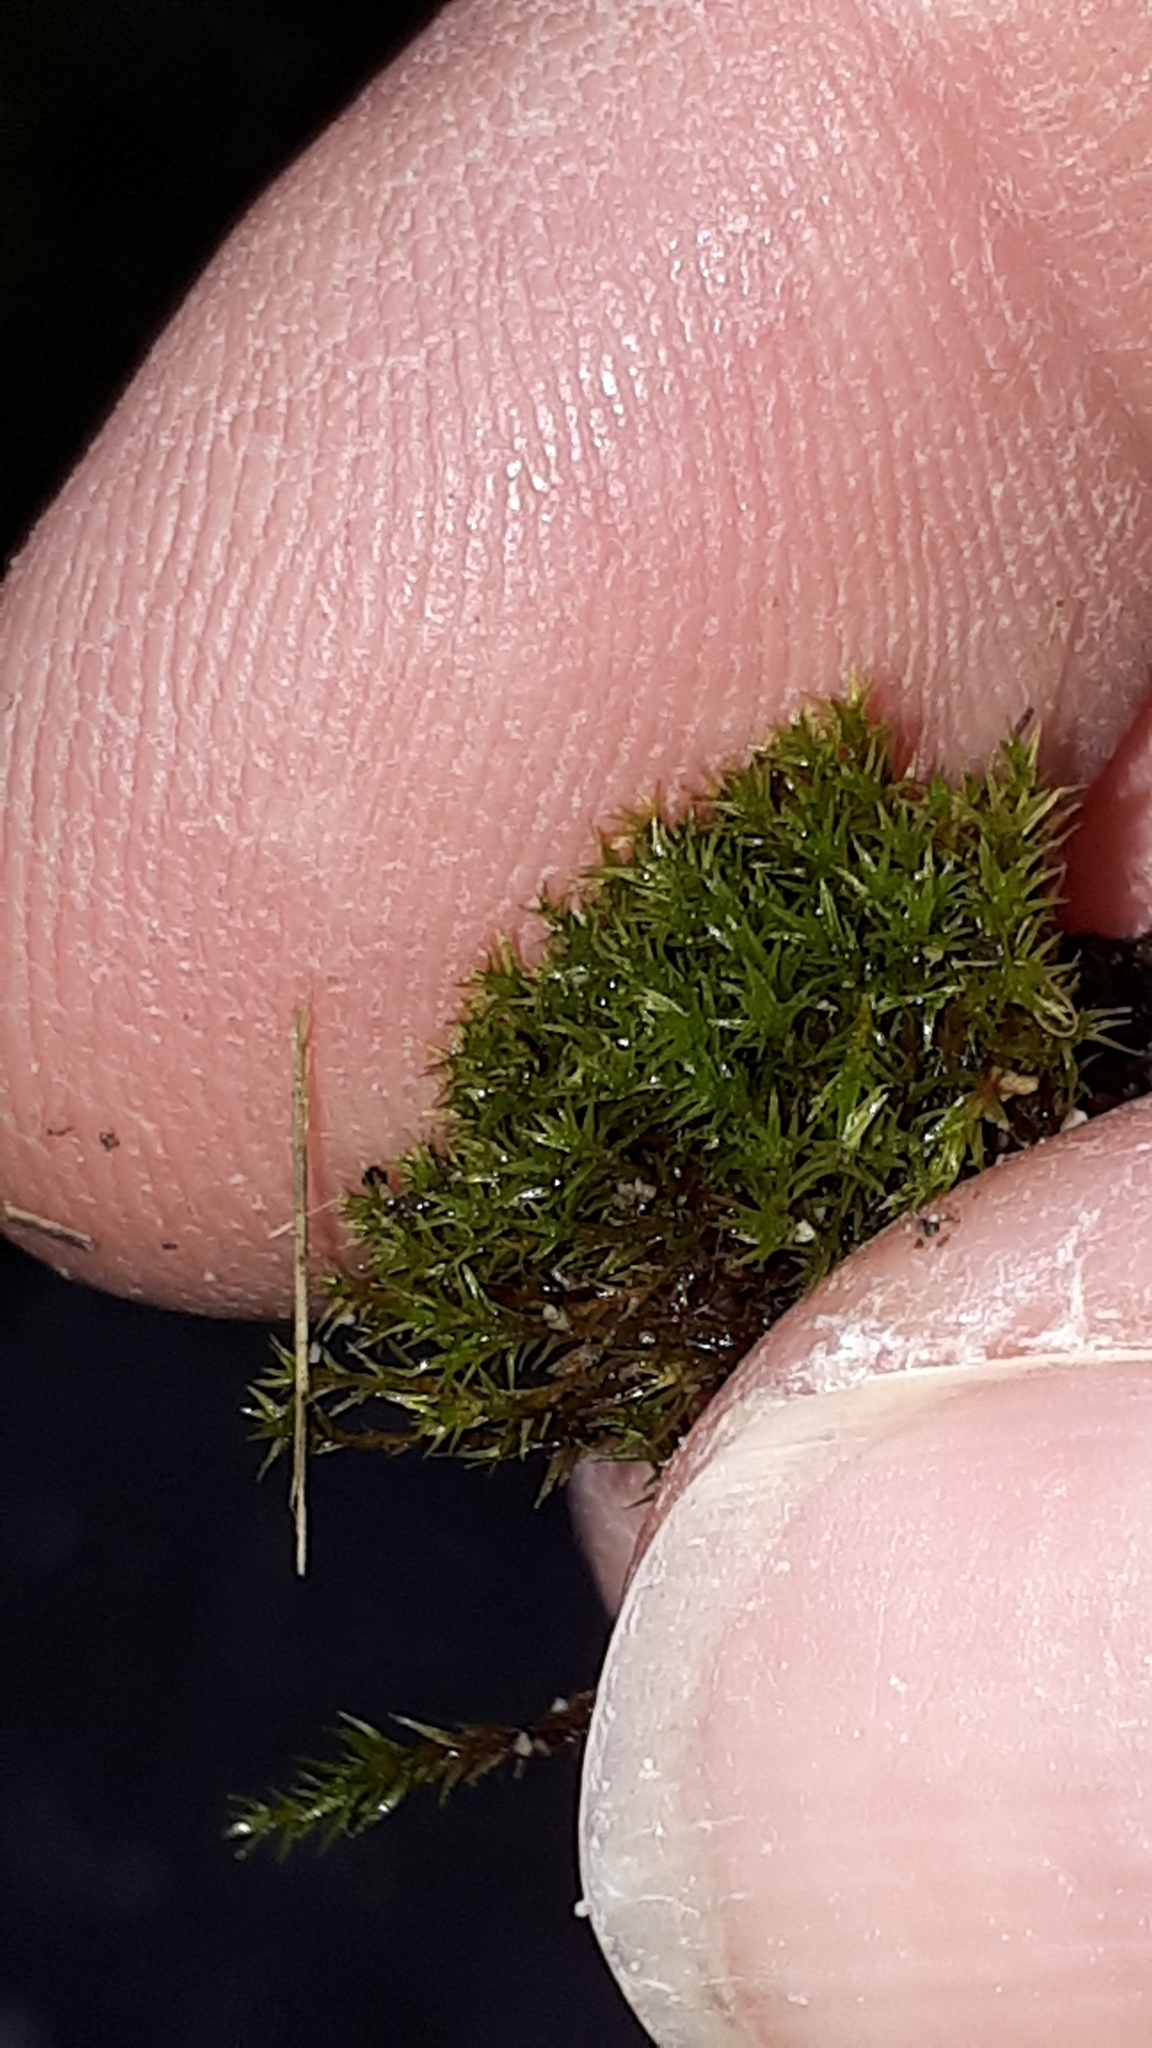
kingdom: Plantae
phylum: Bryophyta
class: Bryopsida
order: Dicranales
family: Ditrichaceae
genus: Ceratodon
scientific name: Ceratodon purpureus
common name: Redshank
